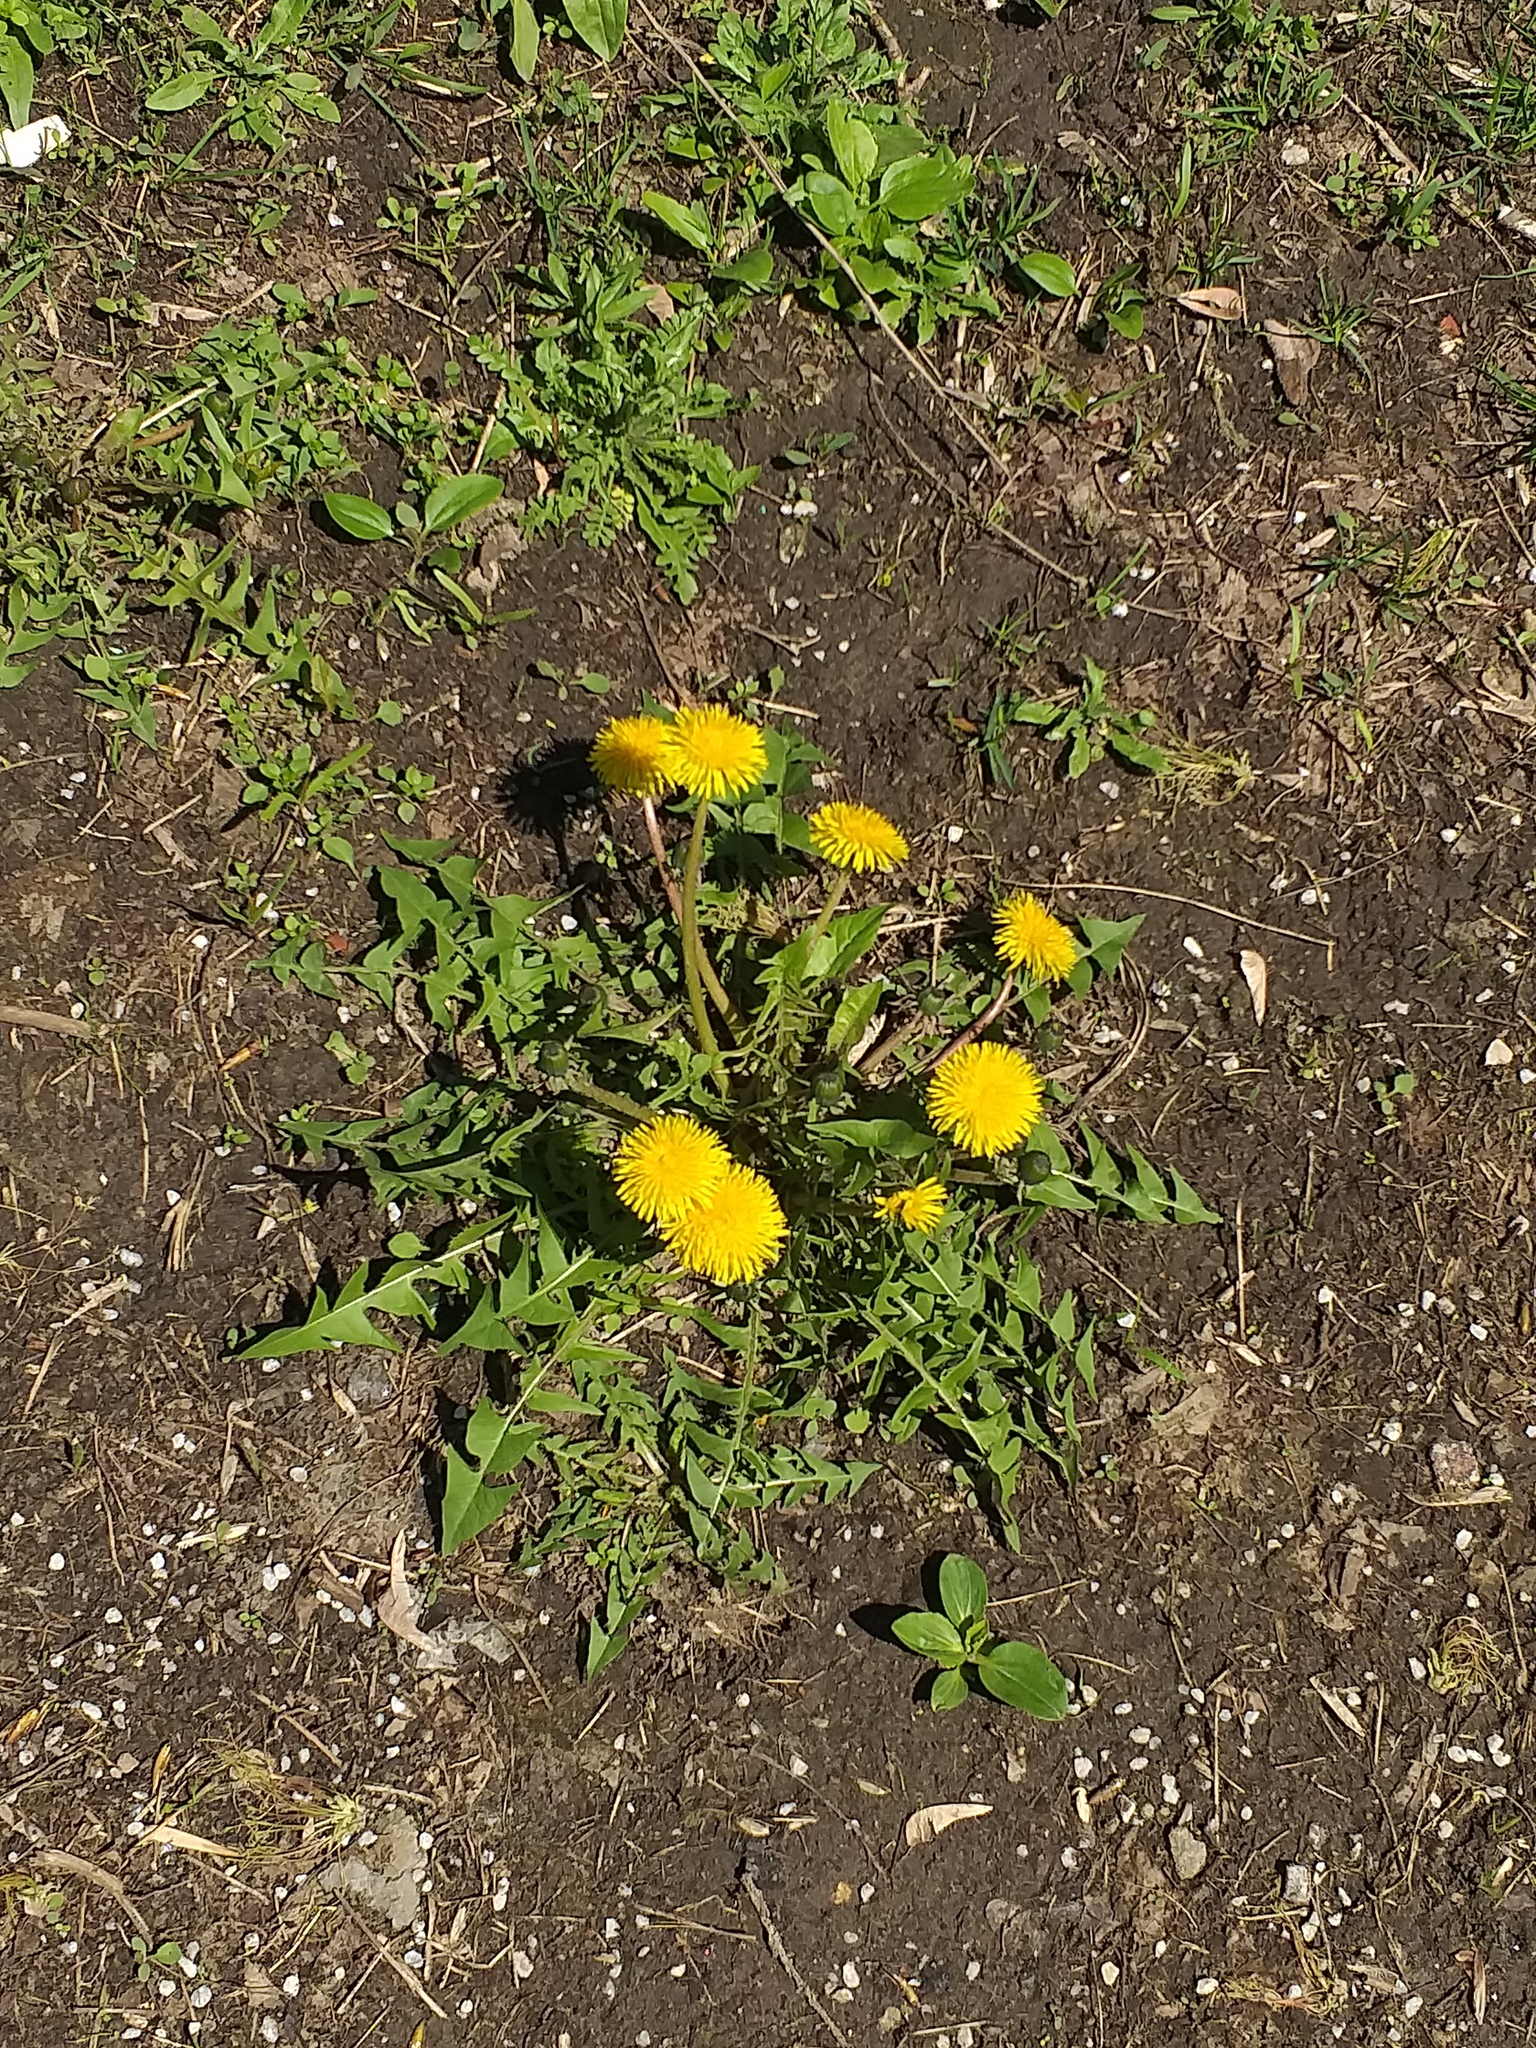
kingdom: Plantae
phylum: Tracheophyta
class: Magnoliopsida
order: Asterales
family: Asteraceae
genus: Taraxacum
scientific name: Taraxacum officinale
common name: Common dandelion
